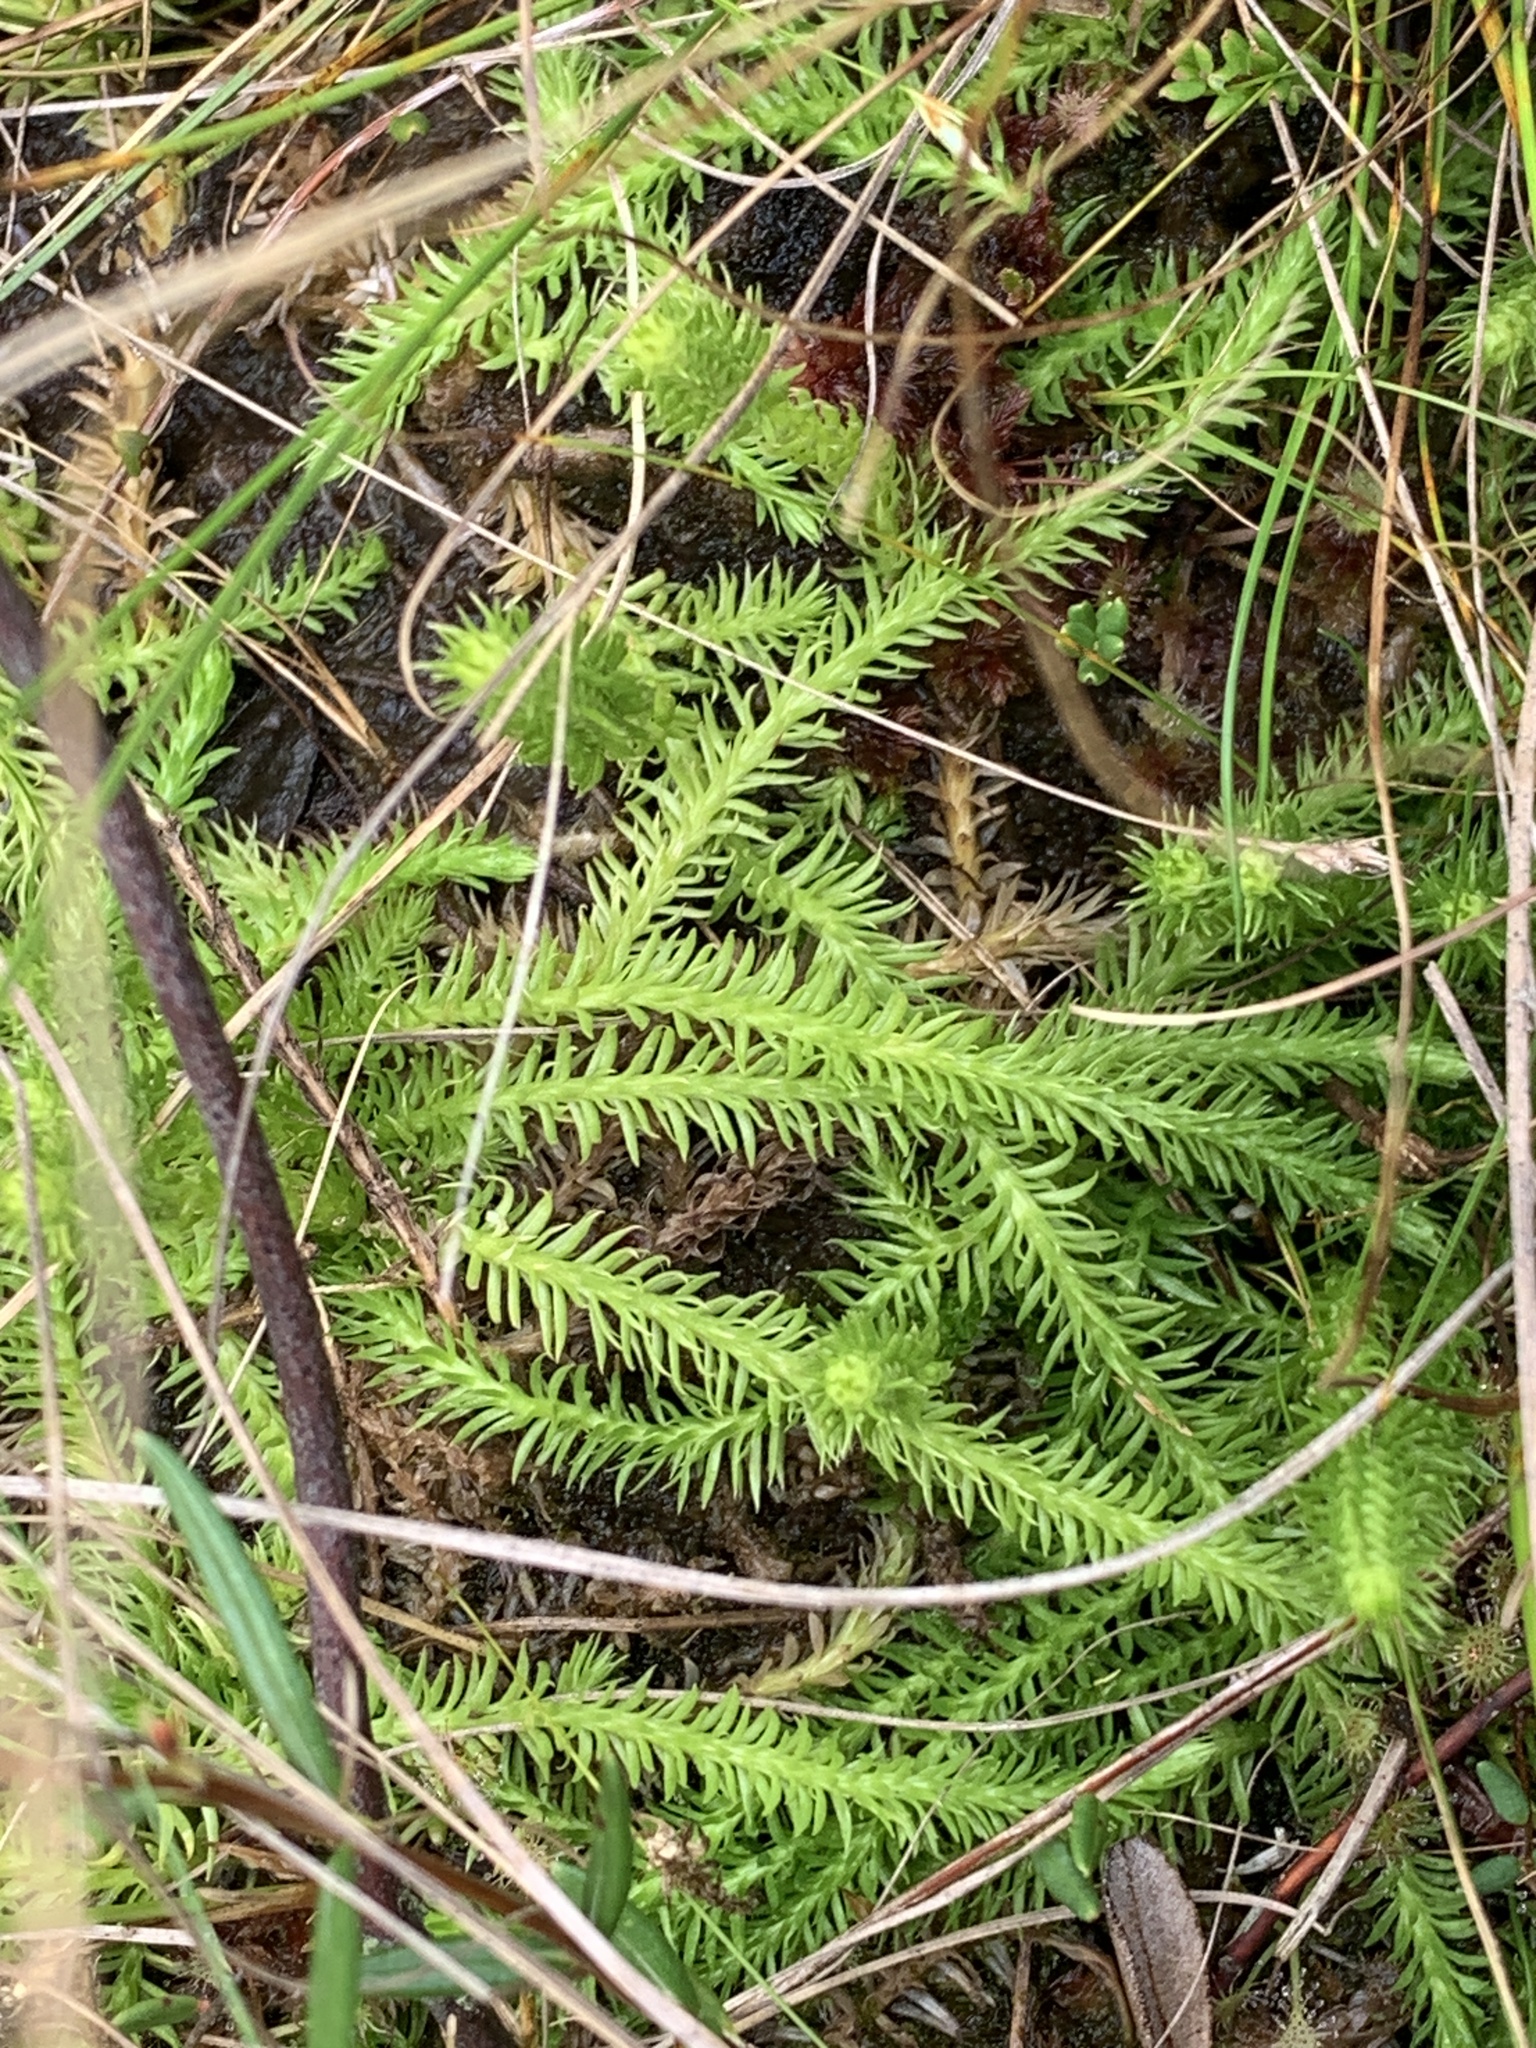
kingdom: Plantae
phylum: Tracheophyta
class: Lycopodiopsida
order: Lycopodiales
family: Lycopodiaceae
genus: Lycopodiella
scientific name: Lycopodiella inundata
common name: Marsh clubmoss
